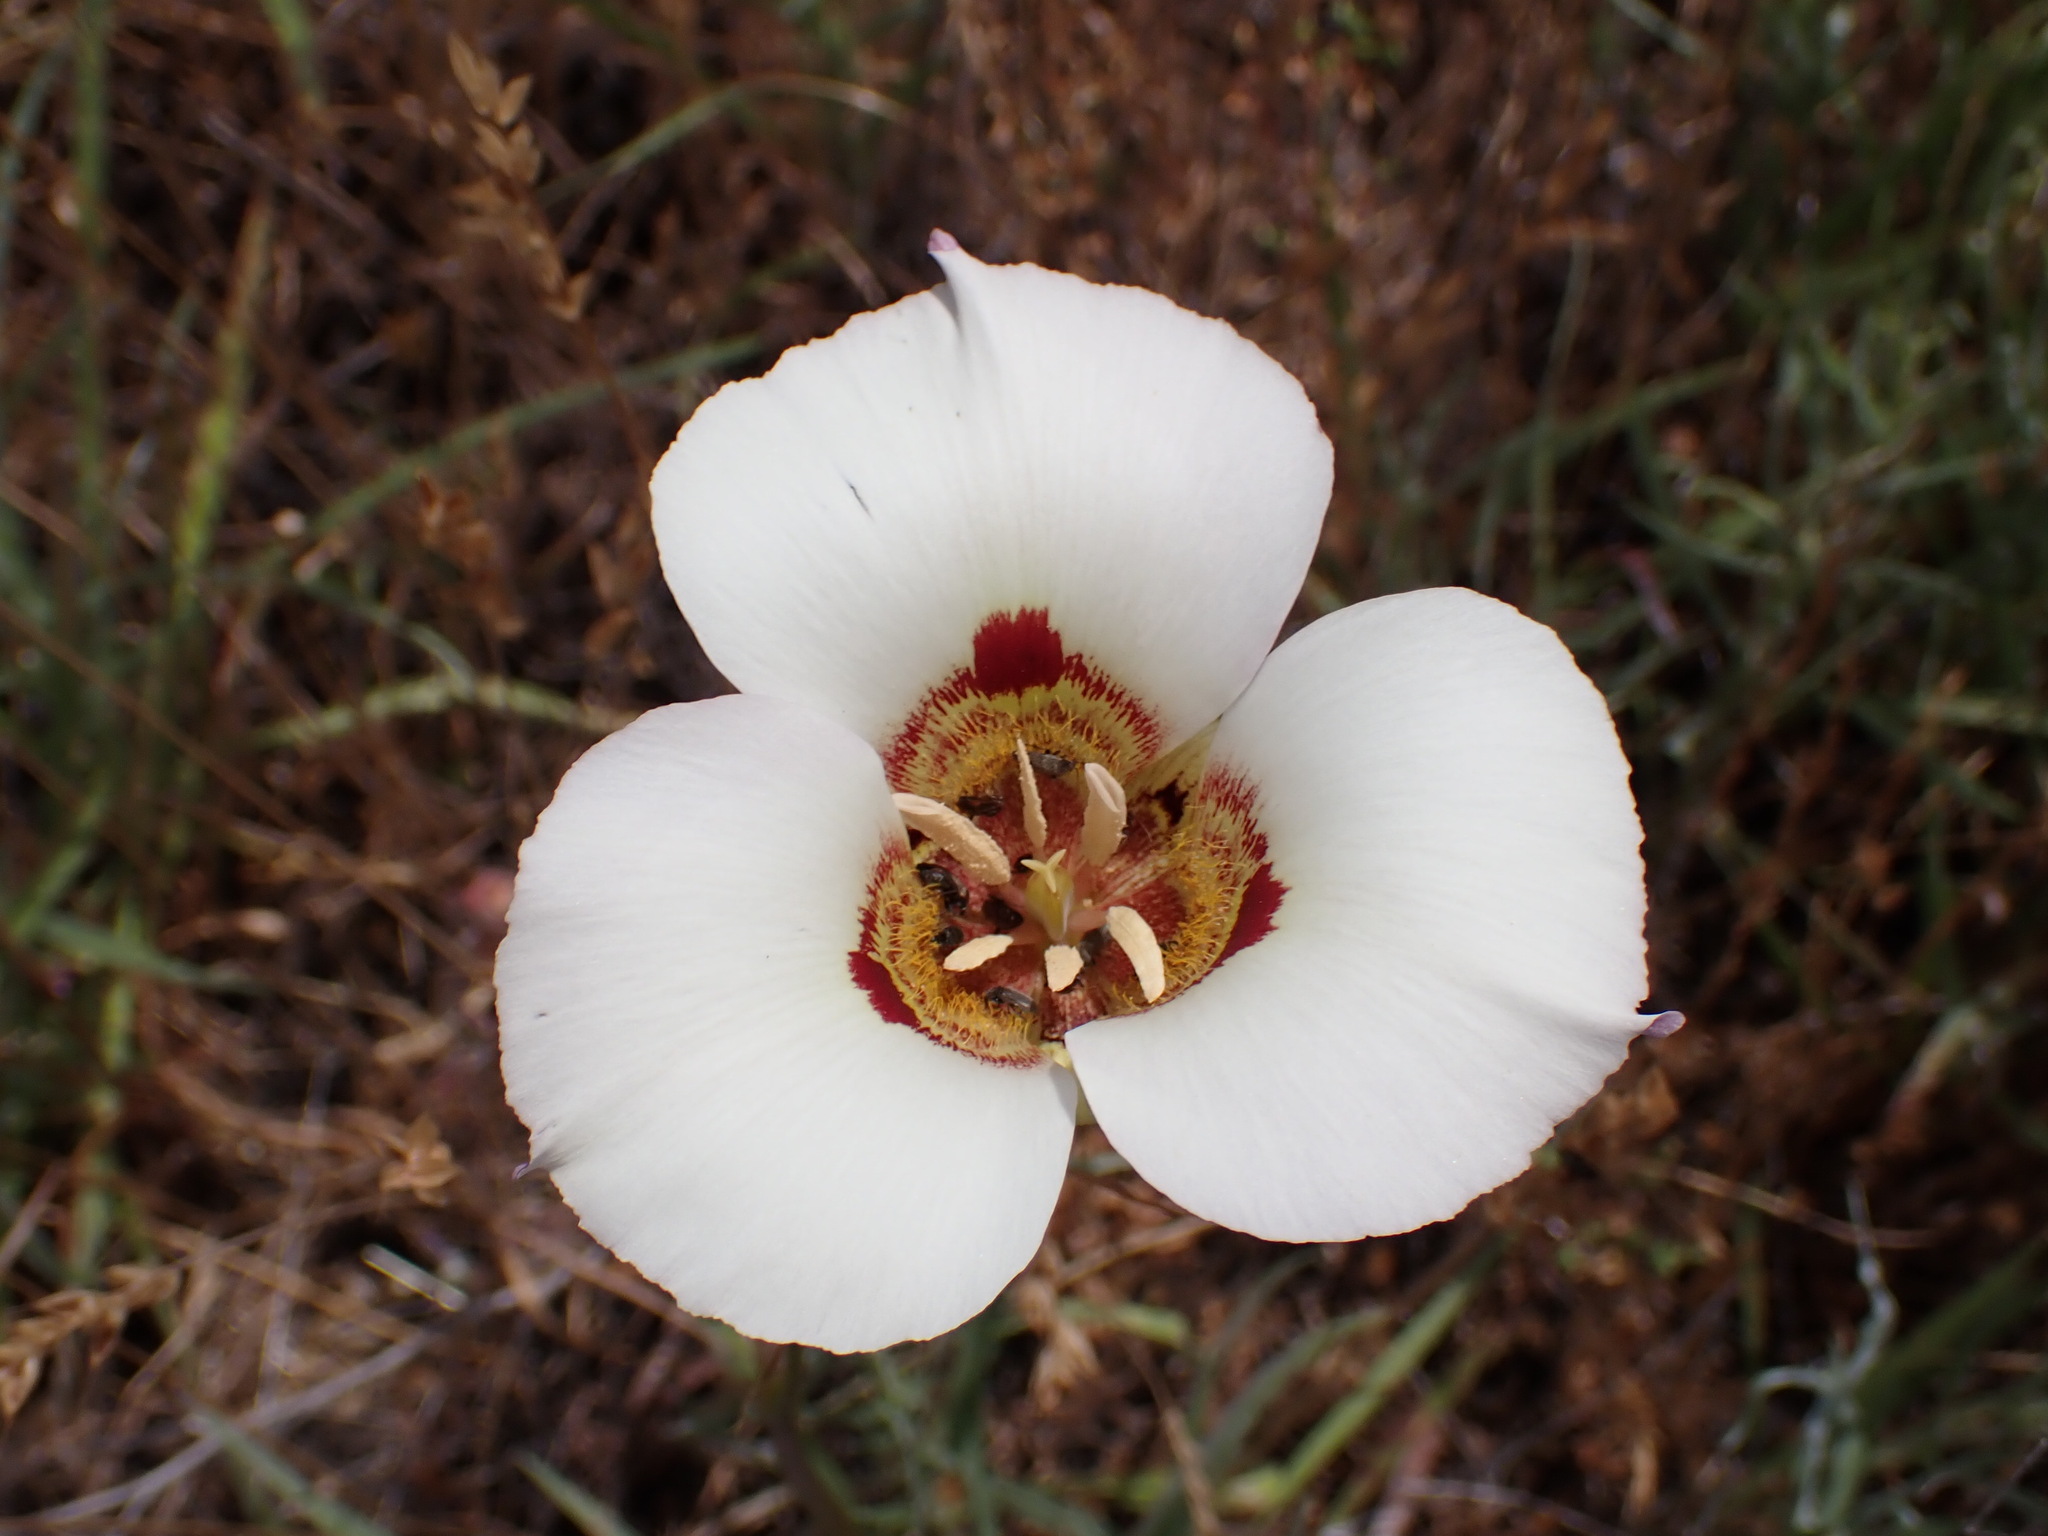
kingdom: Plantae
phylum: Tracheophyta
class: Liliopsida
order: Liliales
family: Liliaceae
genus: Calochortus
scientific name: Calochortus vestae
